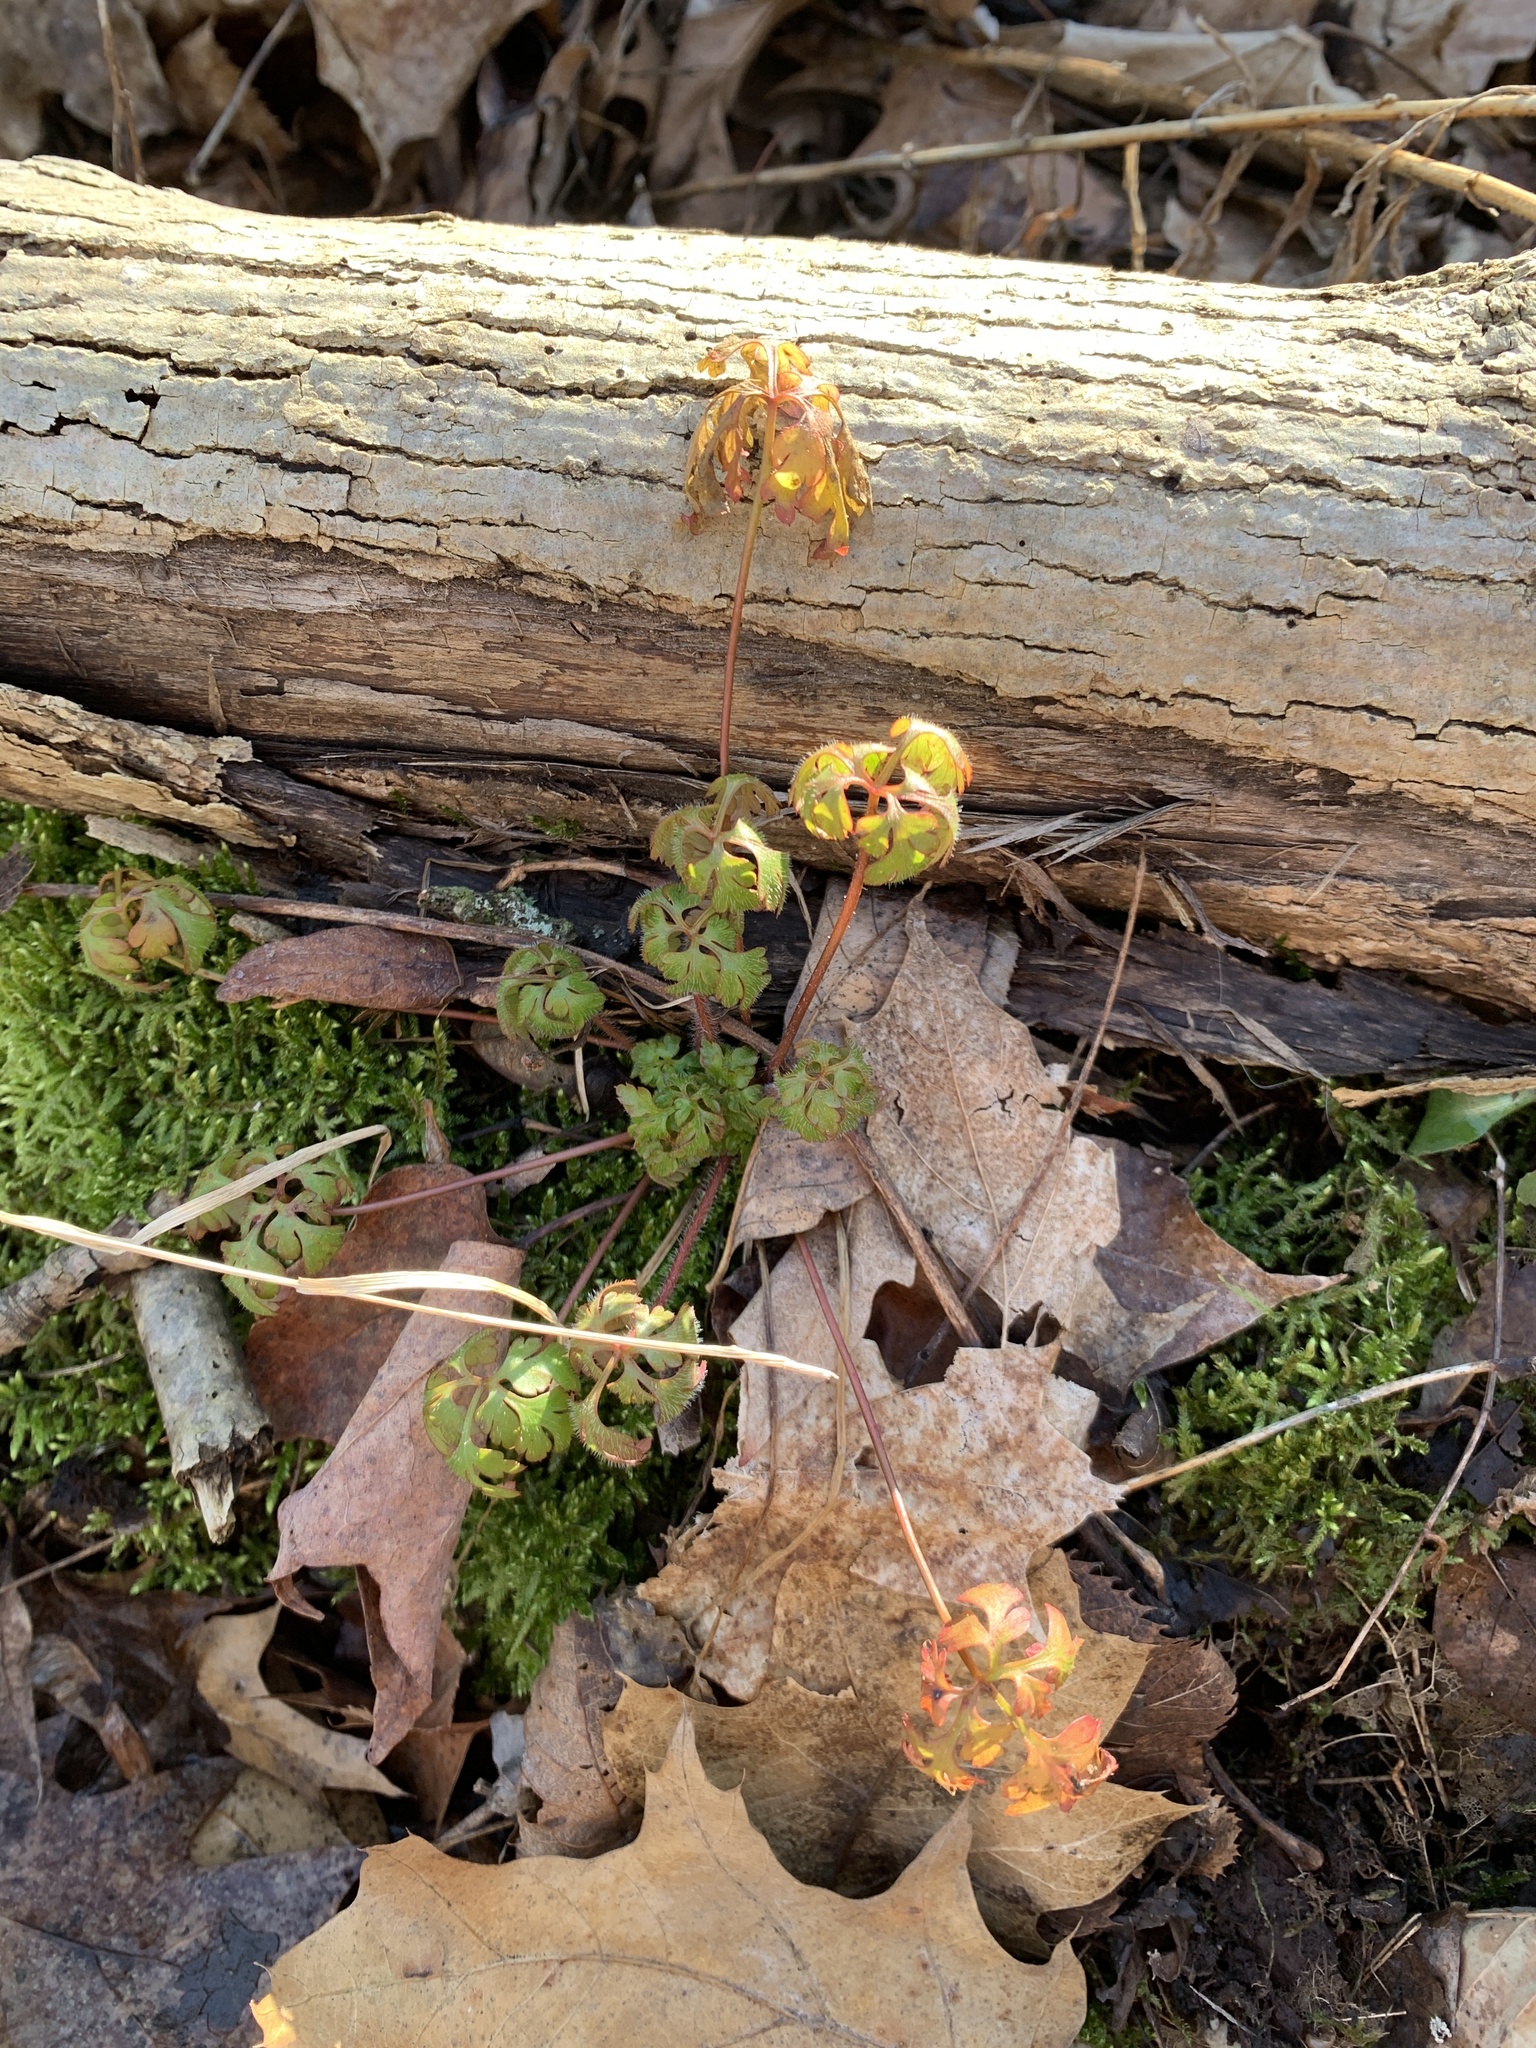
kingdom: Plantae
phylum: Tracheophyta
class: Magnoliopsida
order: Geraniales
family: Geraniaceae
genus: Geranium
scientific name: Geranium robertianum
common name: Herb-robert
